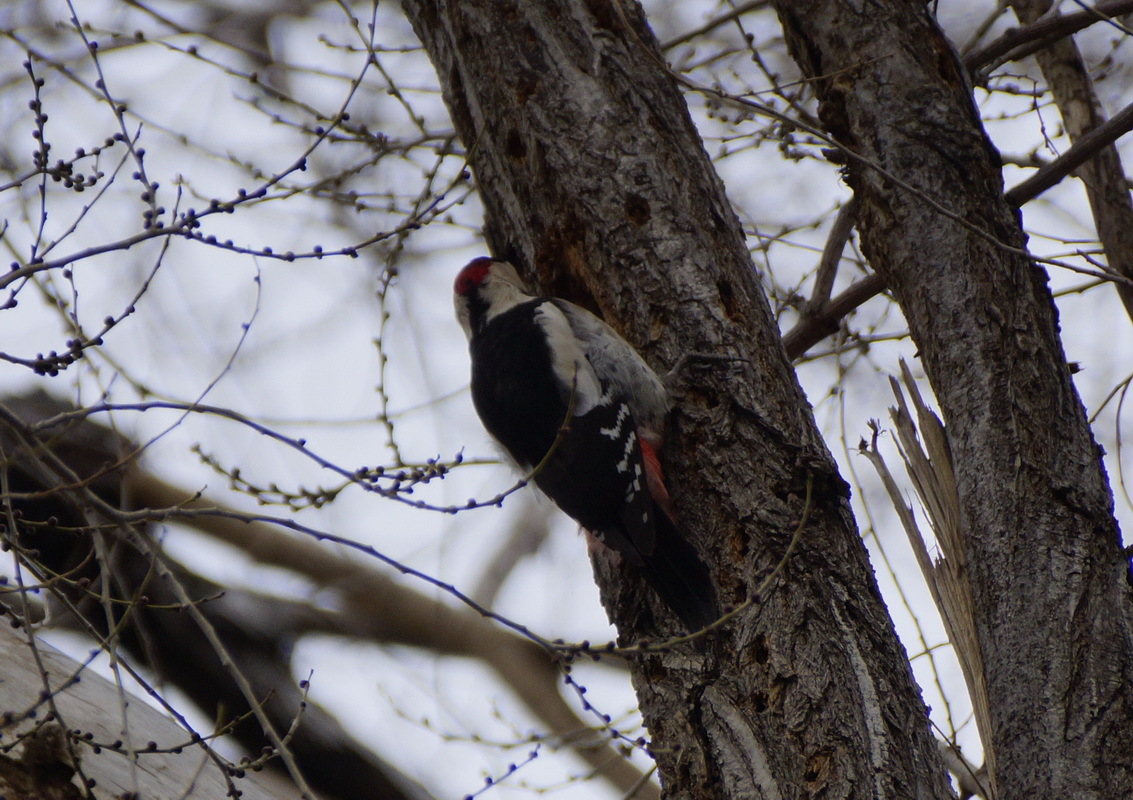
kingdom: Animalia
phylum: Chordata
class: Aves
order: Piciformes
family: Picidae
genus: Dendrocopos
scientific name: Dendrocopos syriacus
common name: Syrian woodpecker
